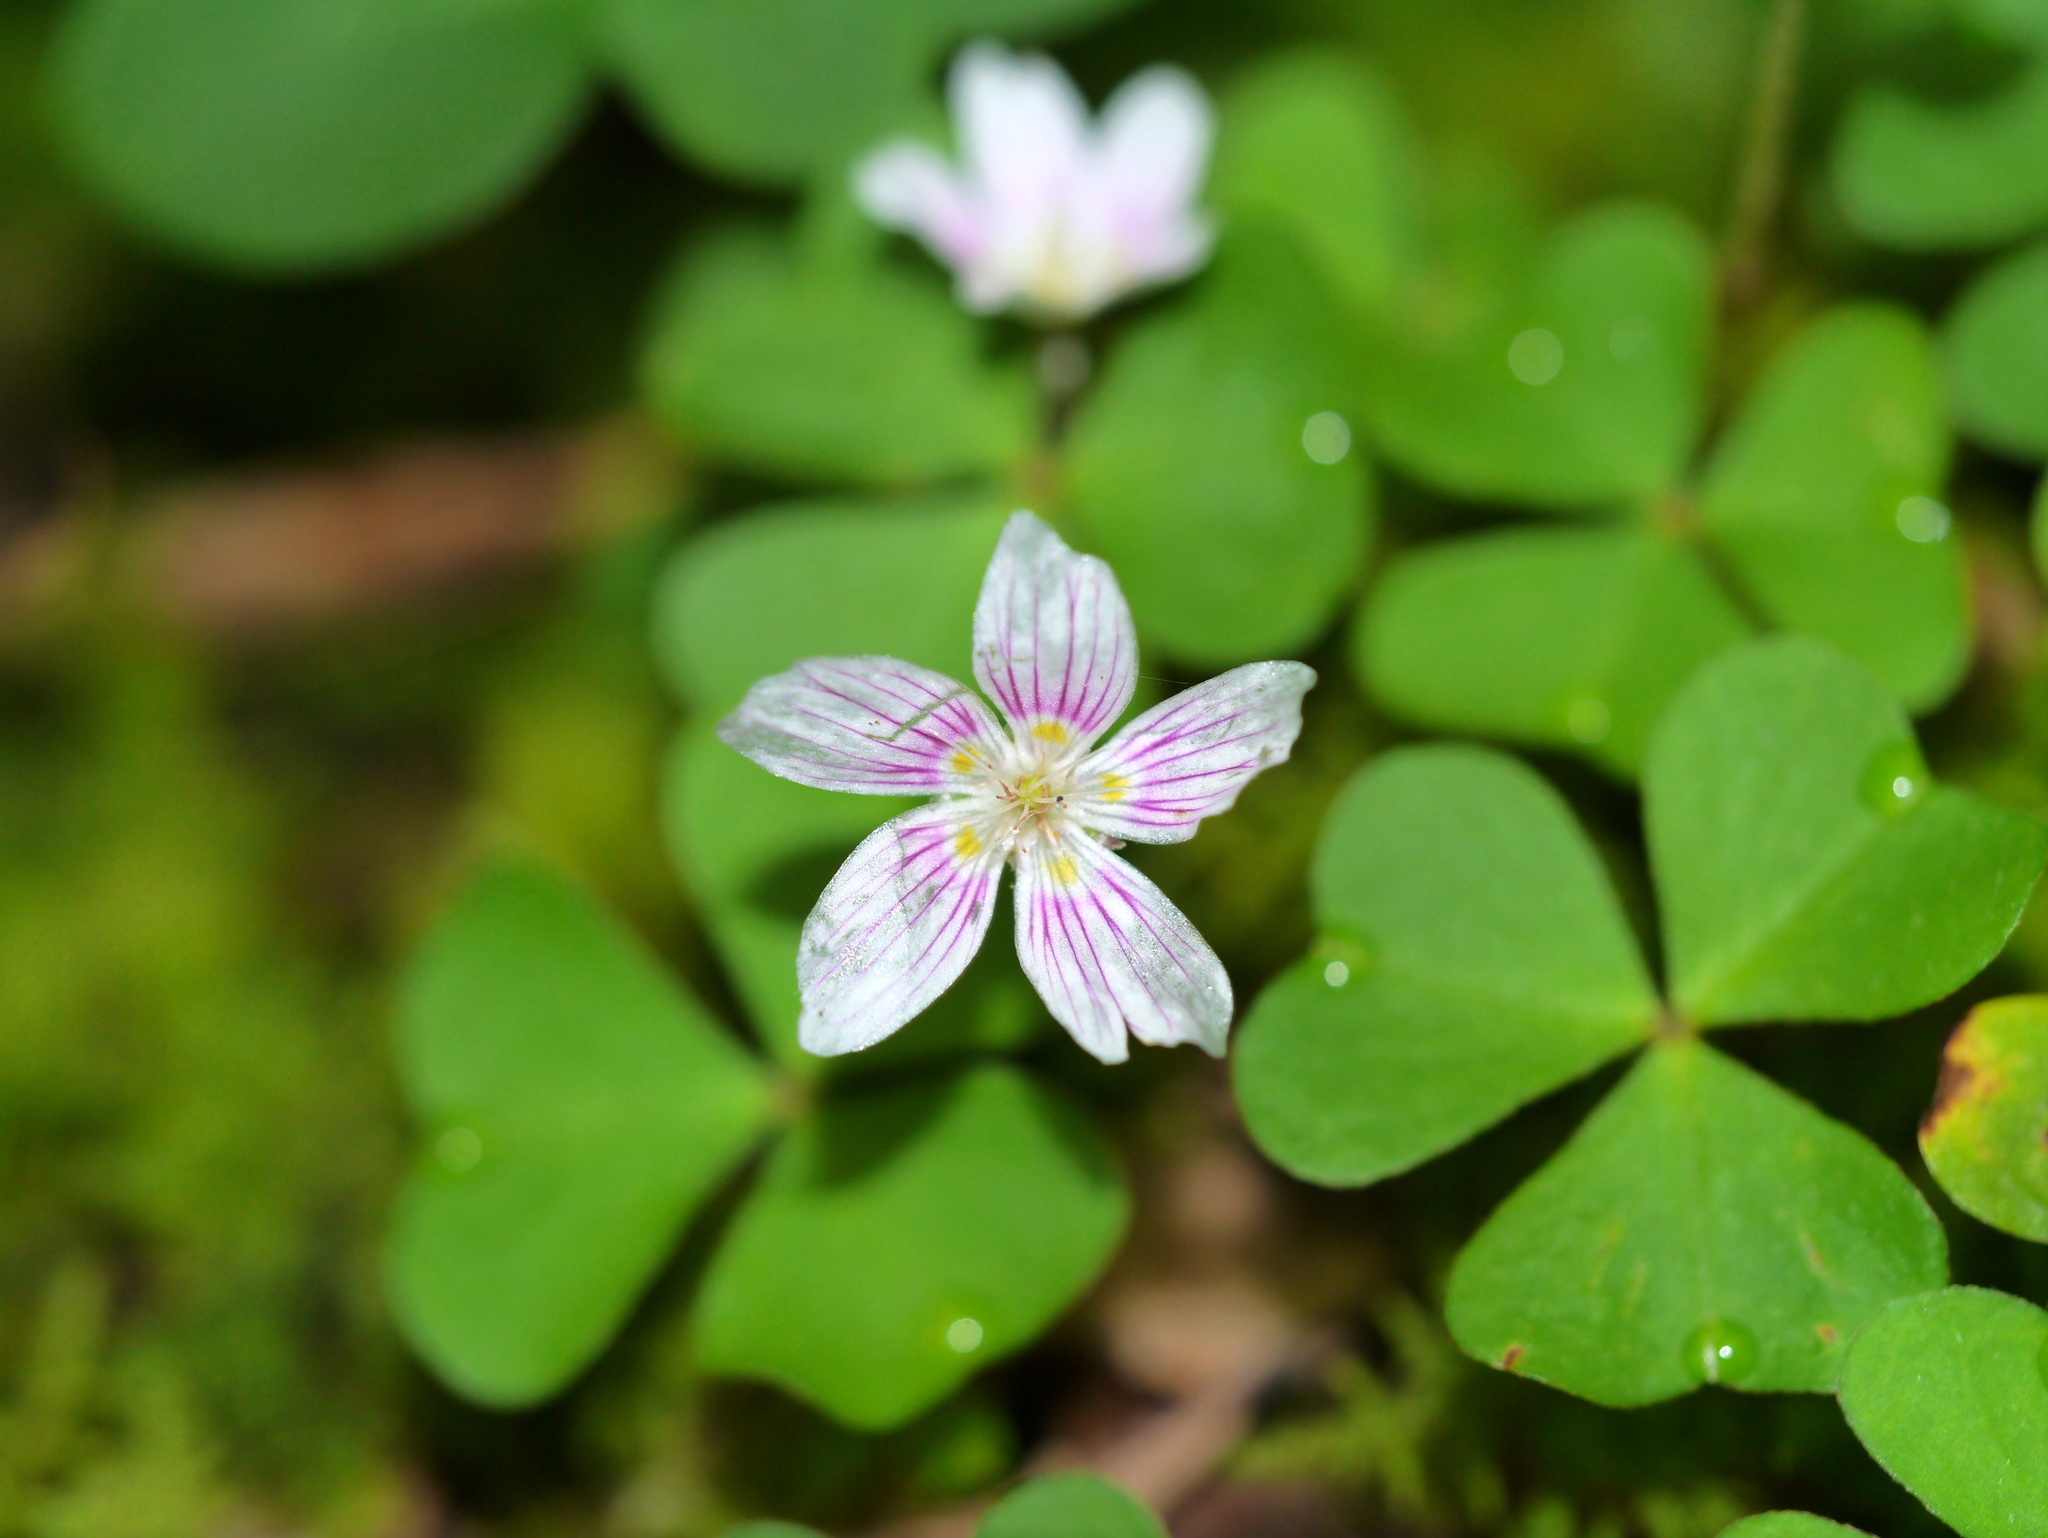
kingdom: Plantae
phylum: Tracheophyta
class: Magnoliopsida
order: Oxalidales
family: Oxalidaceae
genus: Oxalis
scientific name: Oxalis montana
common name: American wood-sorrel
